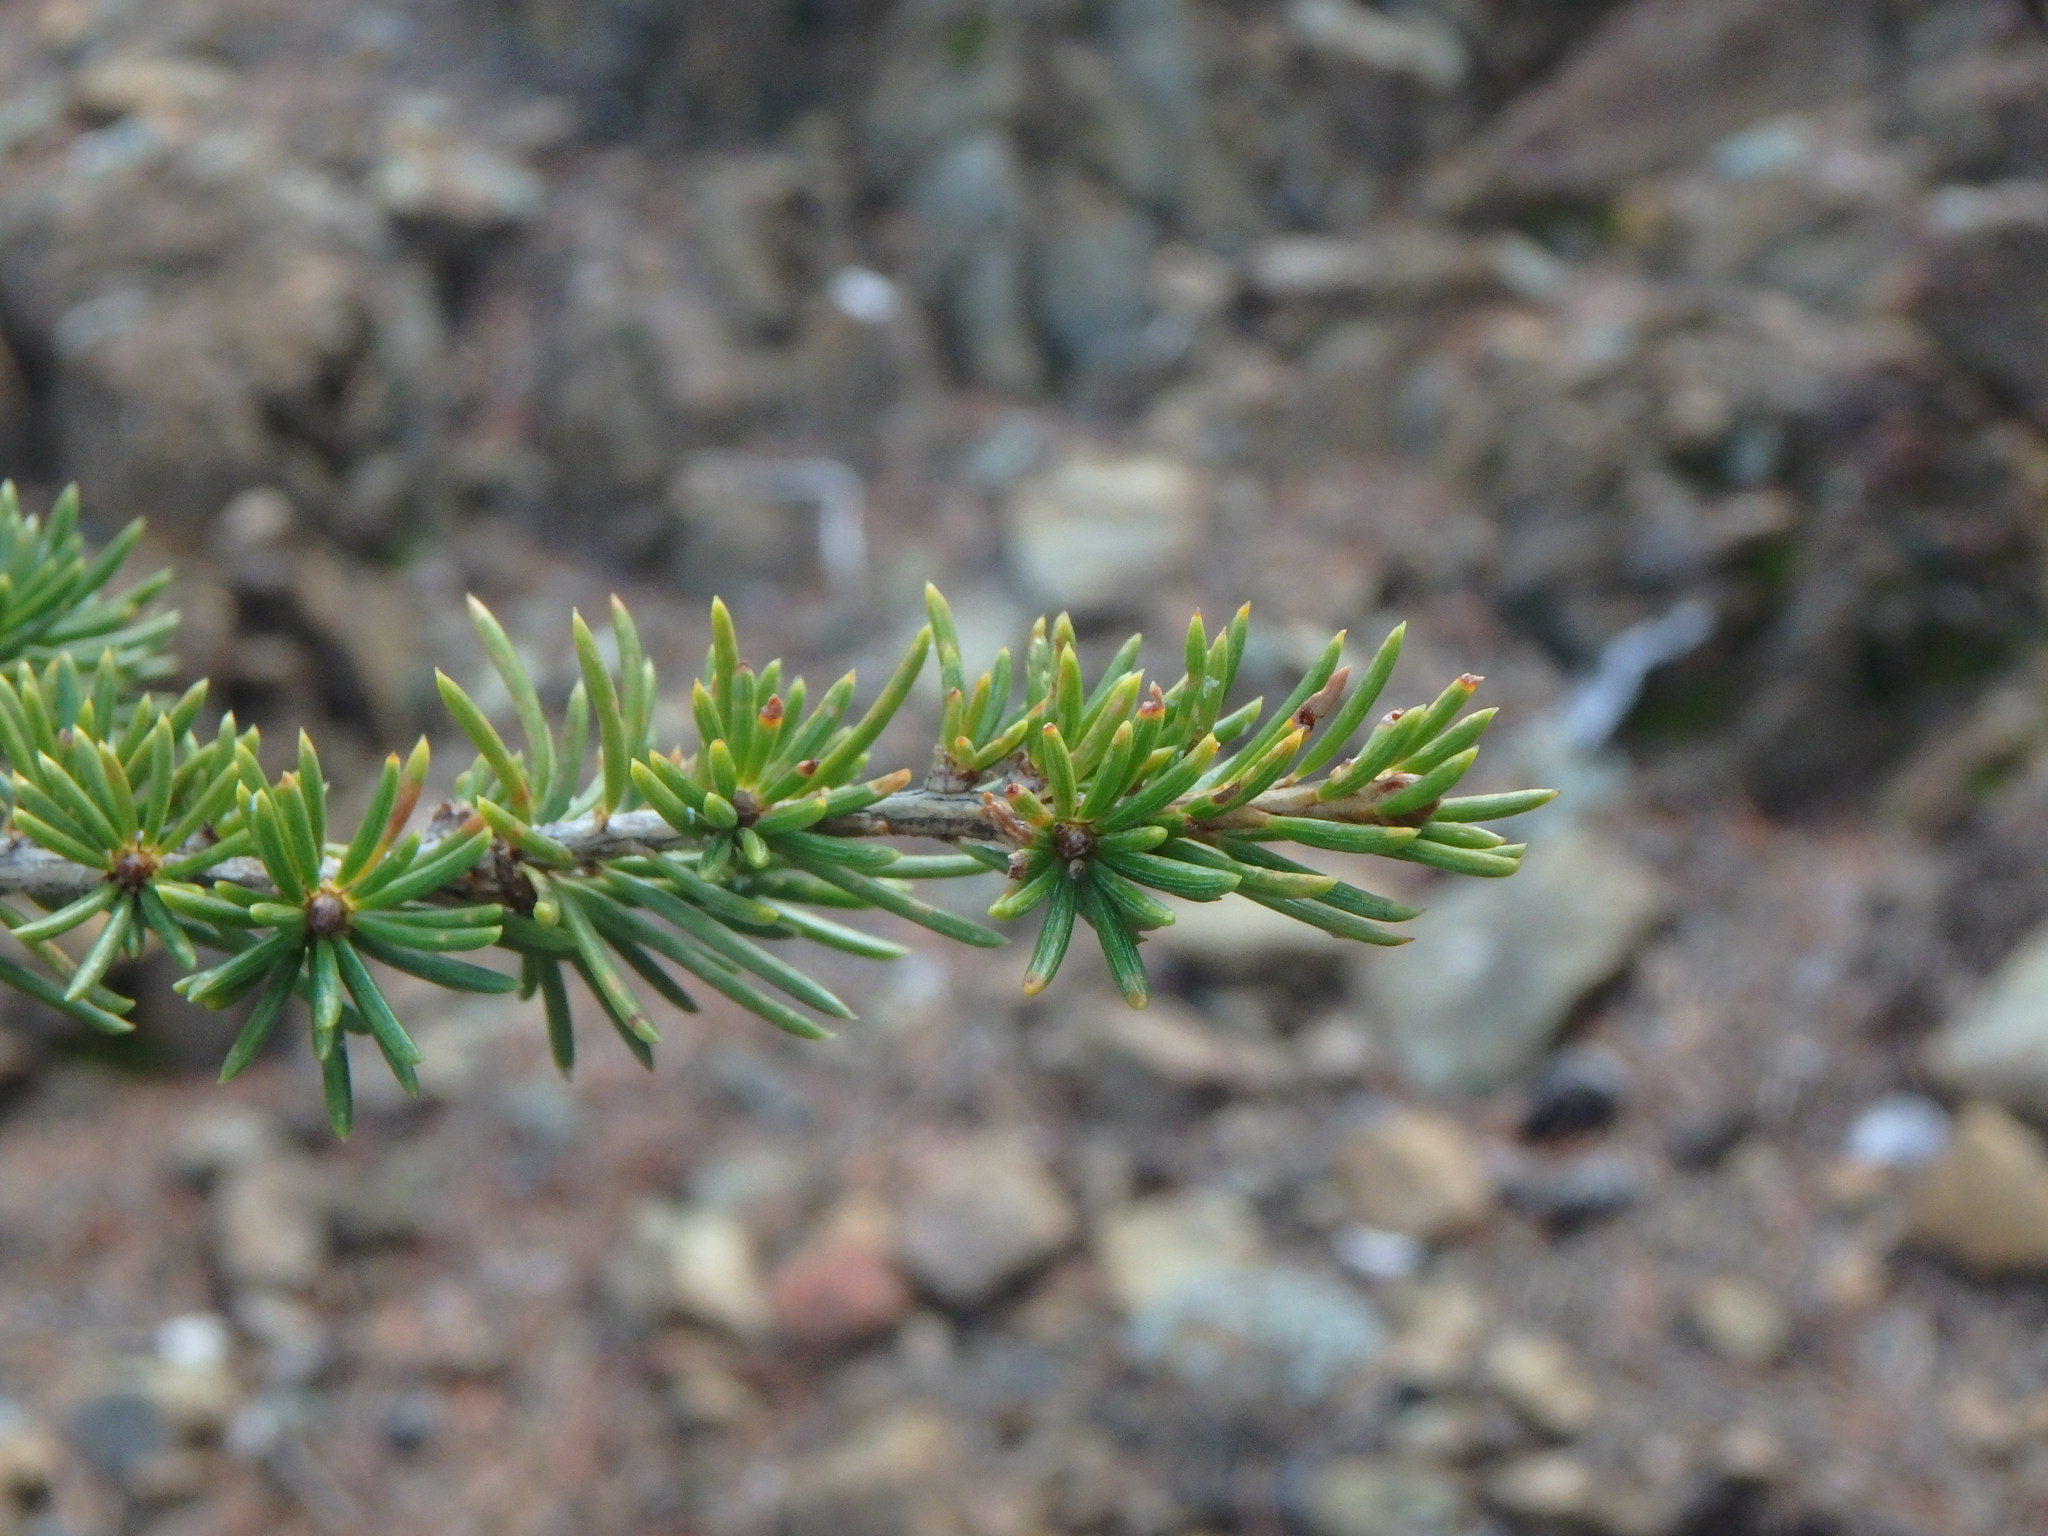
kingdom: Plantae
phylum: Tracheophyta
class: Pinopsida
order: Pinales
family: Pinaceae
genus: Cedrus
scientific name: Cedrus brevifolia
